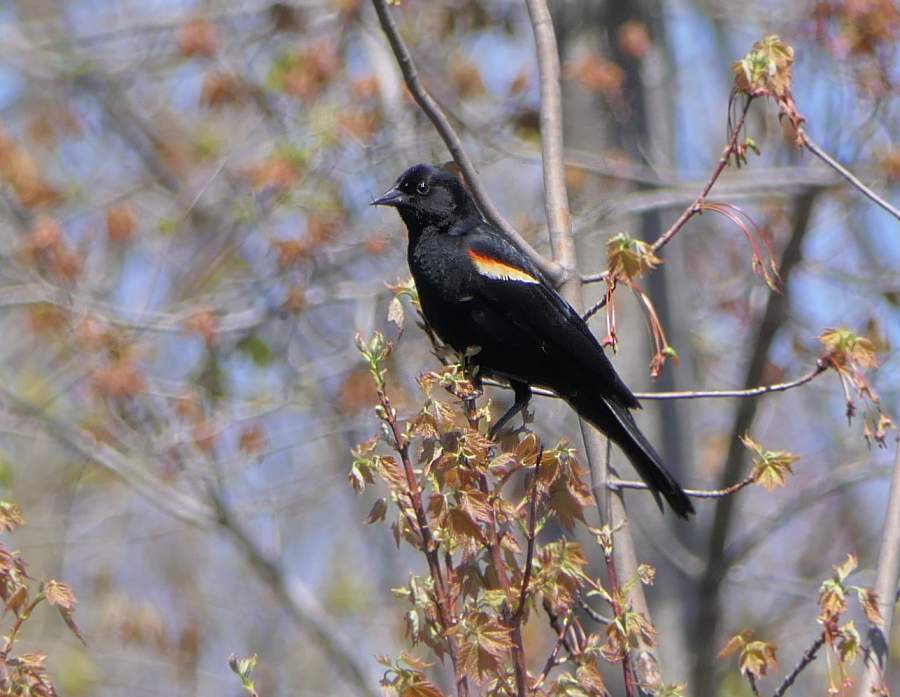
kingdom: Animalia
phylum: Chordata
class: Aves
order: Passeriformes
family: Icteridae
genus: Agelaius
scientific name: Agelaius phoeniceus
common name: Red-winged blackbird
